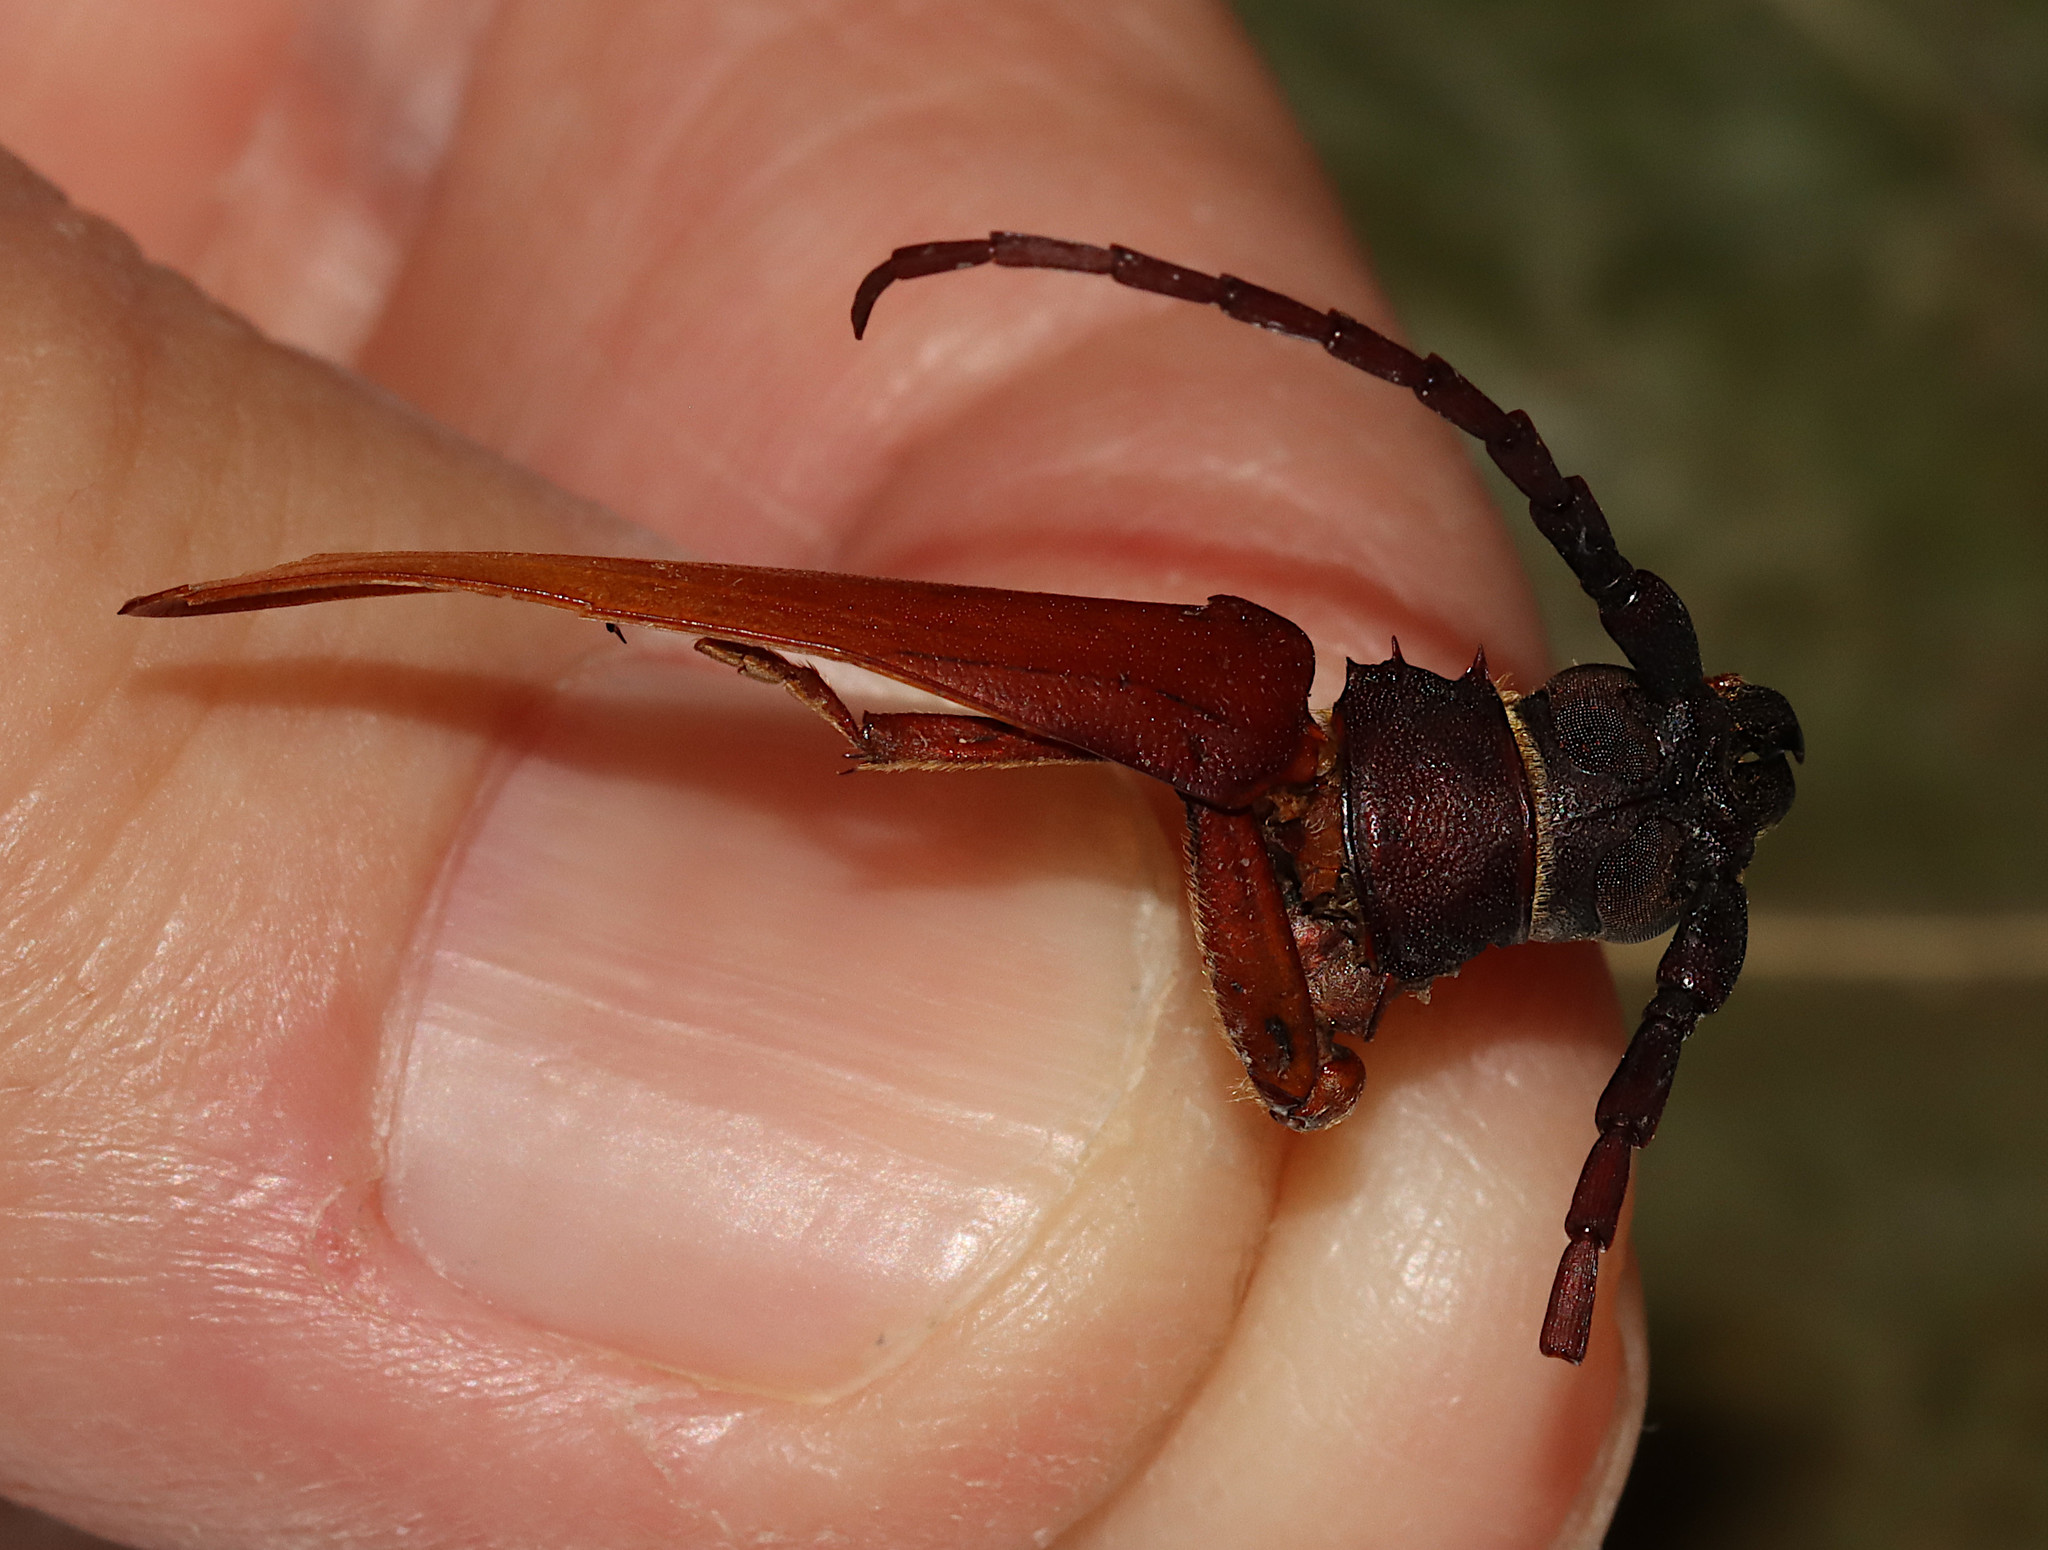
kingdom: Animalia
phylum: Arthropoda
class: Insecta
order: Coleoptera
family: Cerambycidae
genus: Orthosoma
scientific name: Orthosoma brunneum
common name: Brown prionid beetle
